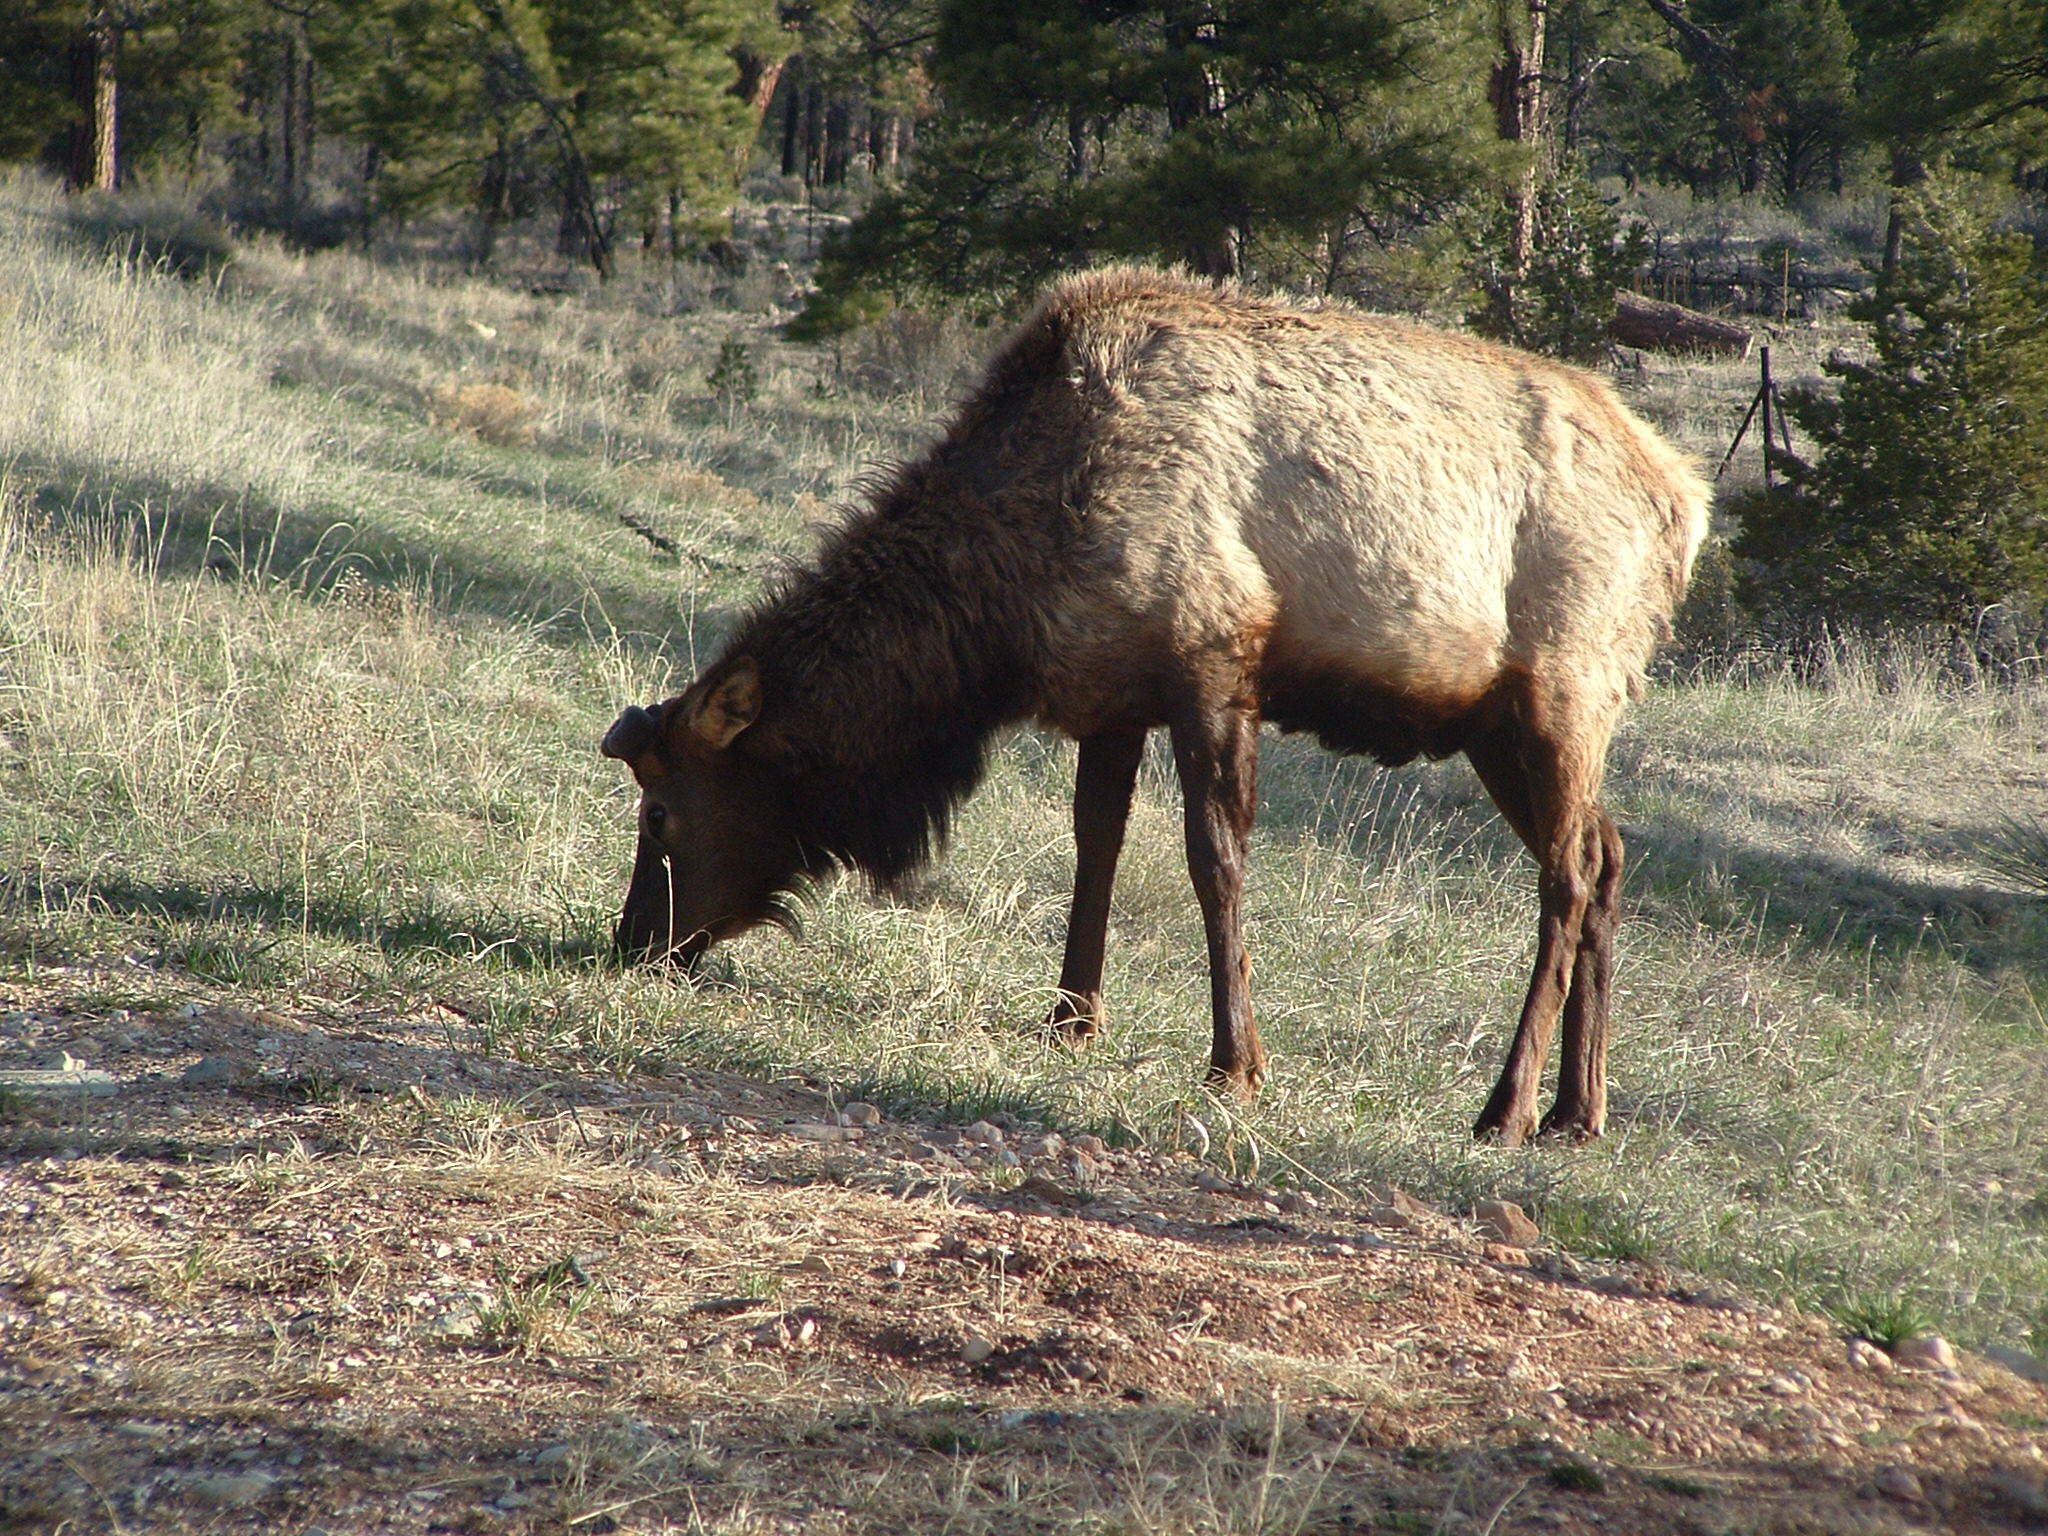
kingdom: Animalia
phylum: Chordata
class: Mammalia
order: Artiodactyla
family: Cervidae
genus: Cervus
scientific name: Cervus elaphus
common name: Red deer
